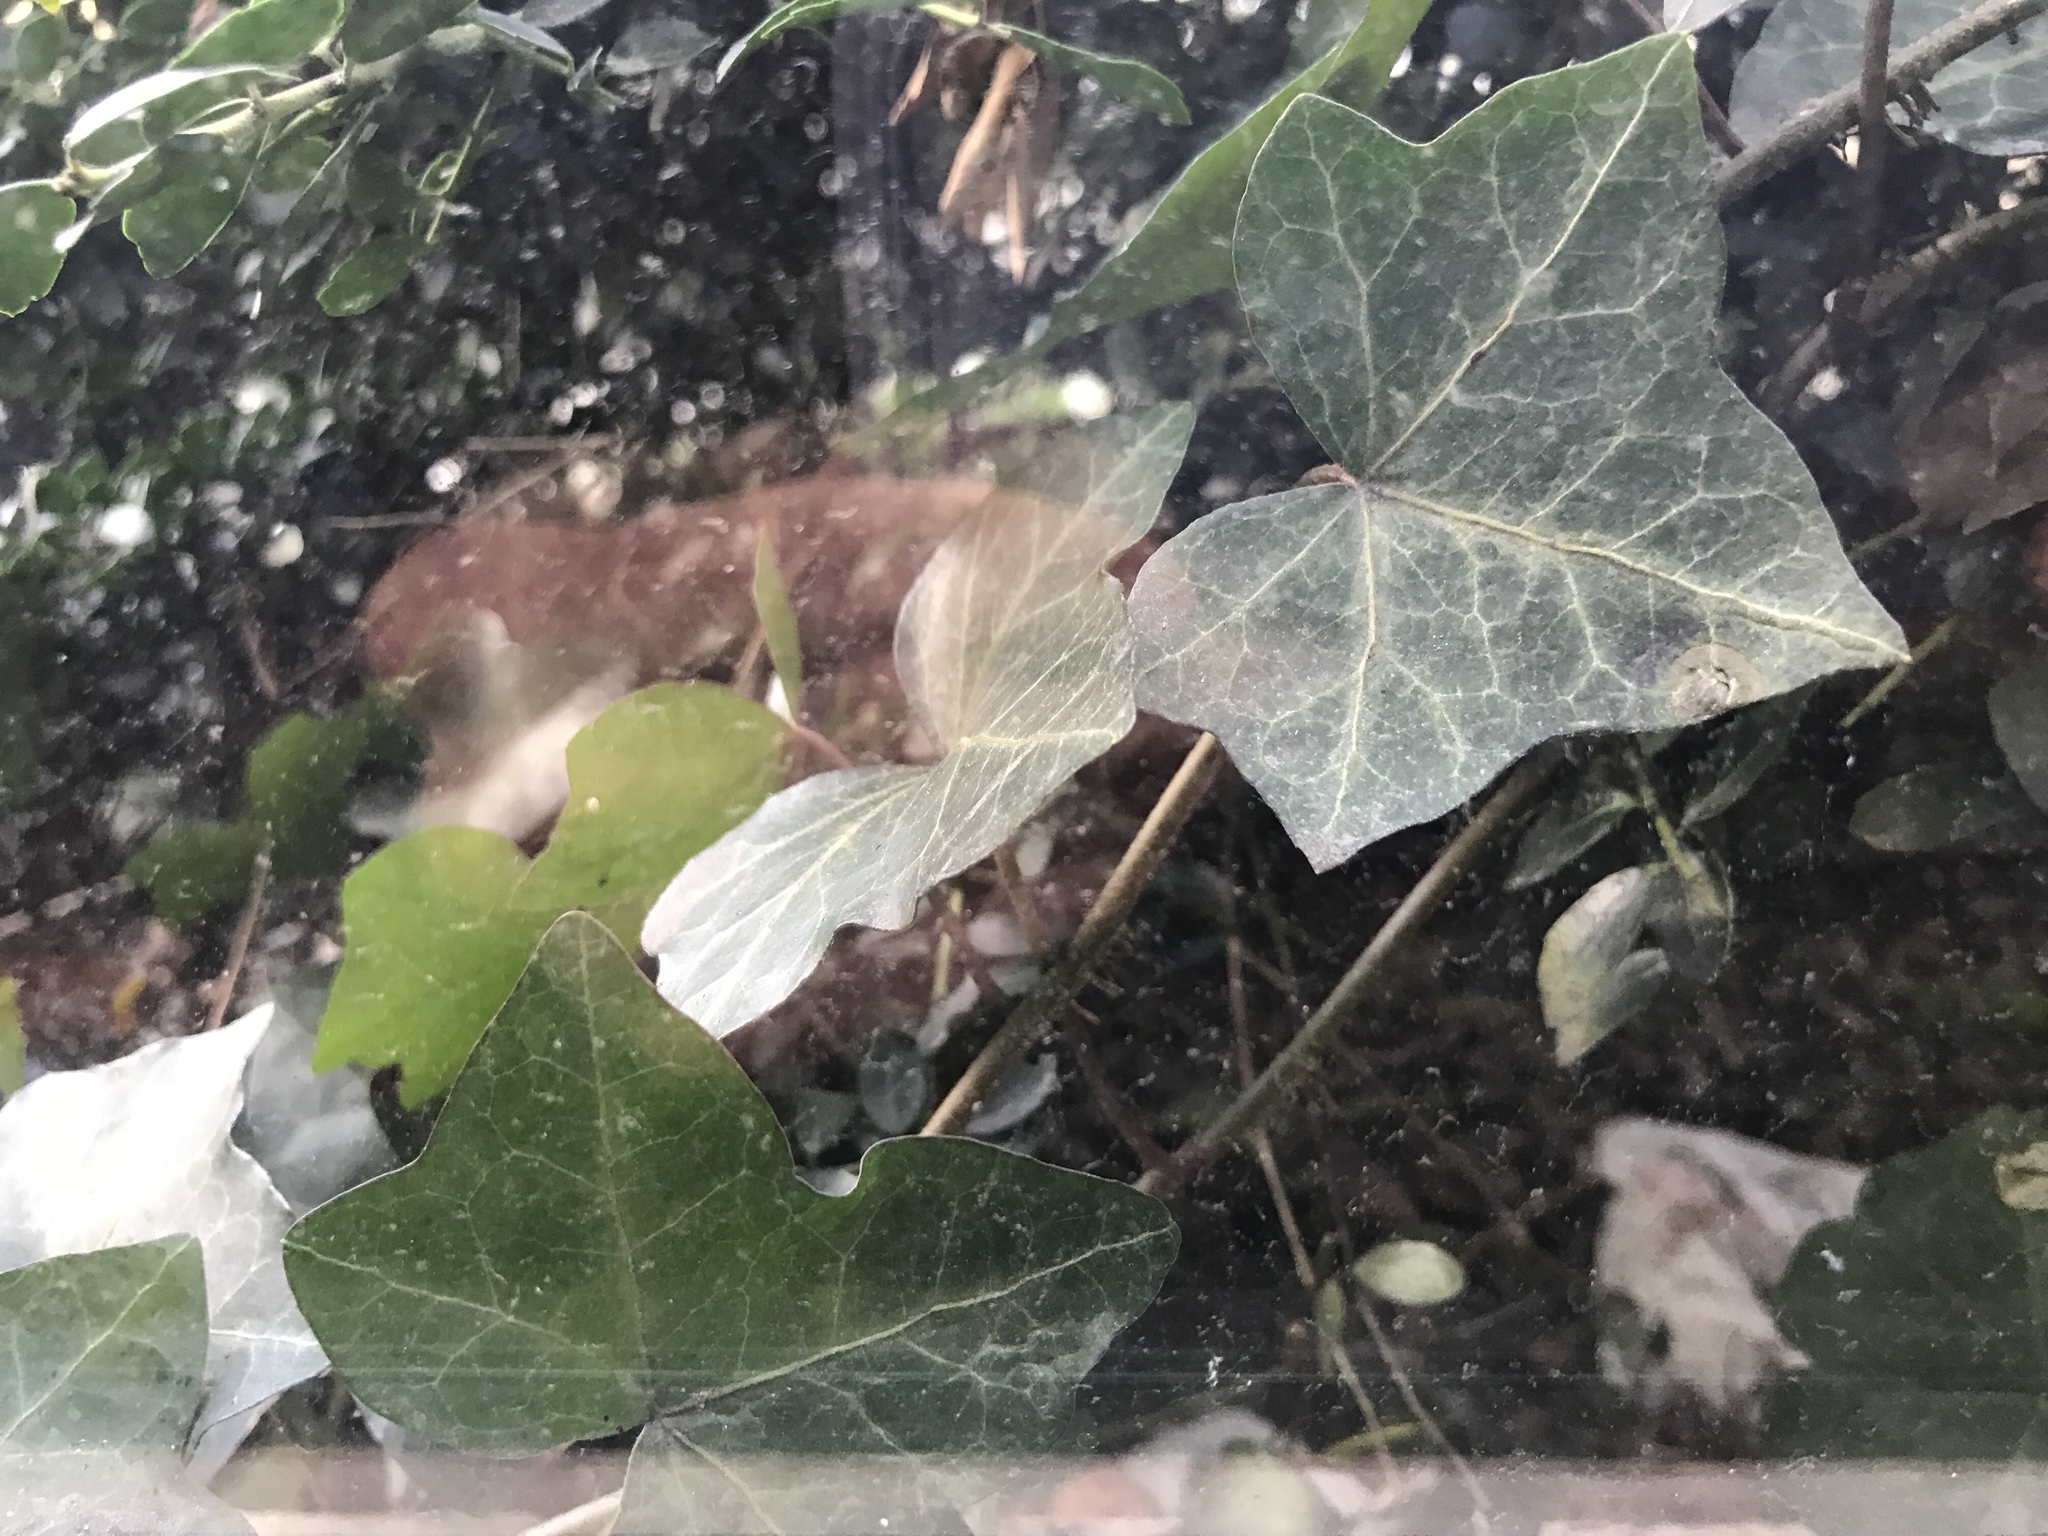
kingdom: Plantae
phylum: Tracheophyta
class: Magnoliopsida
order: Apiales
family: Araliaceae
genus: Hedera
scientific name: Hedera helix
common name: Ivy
